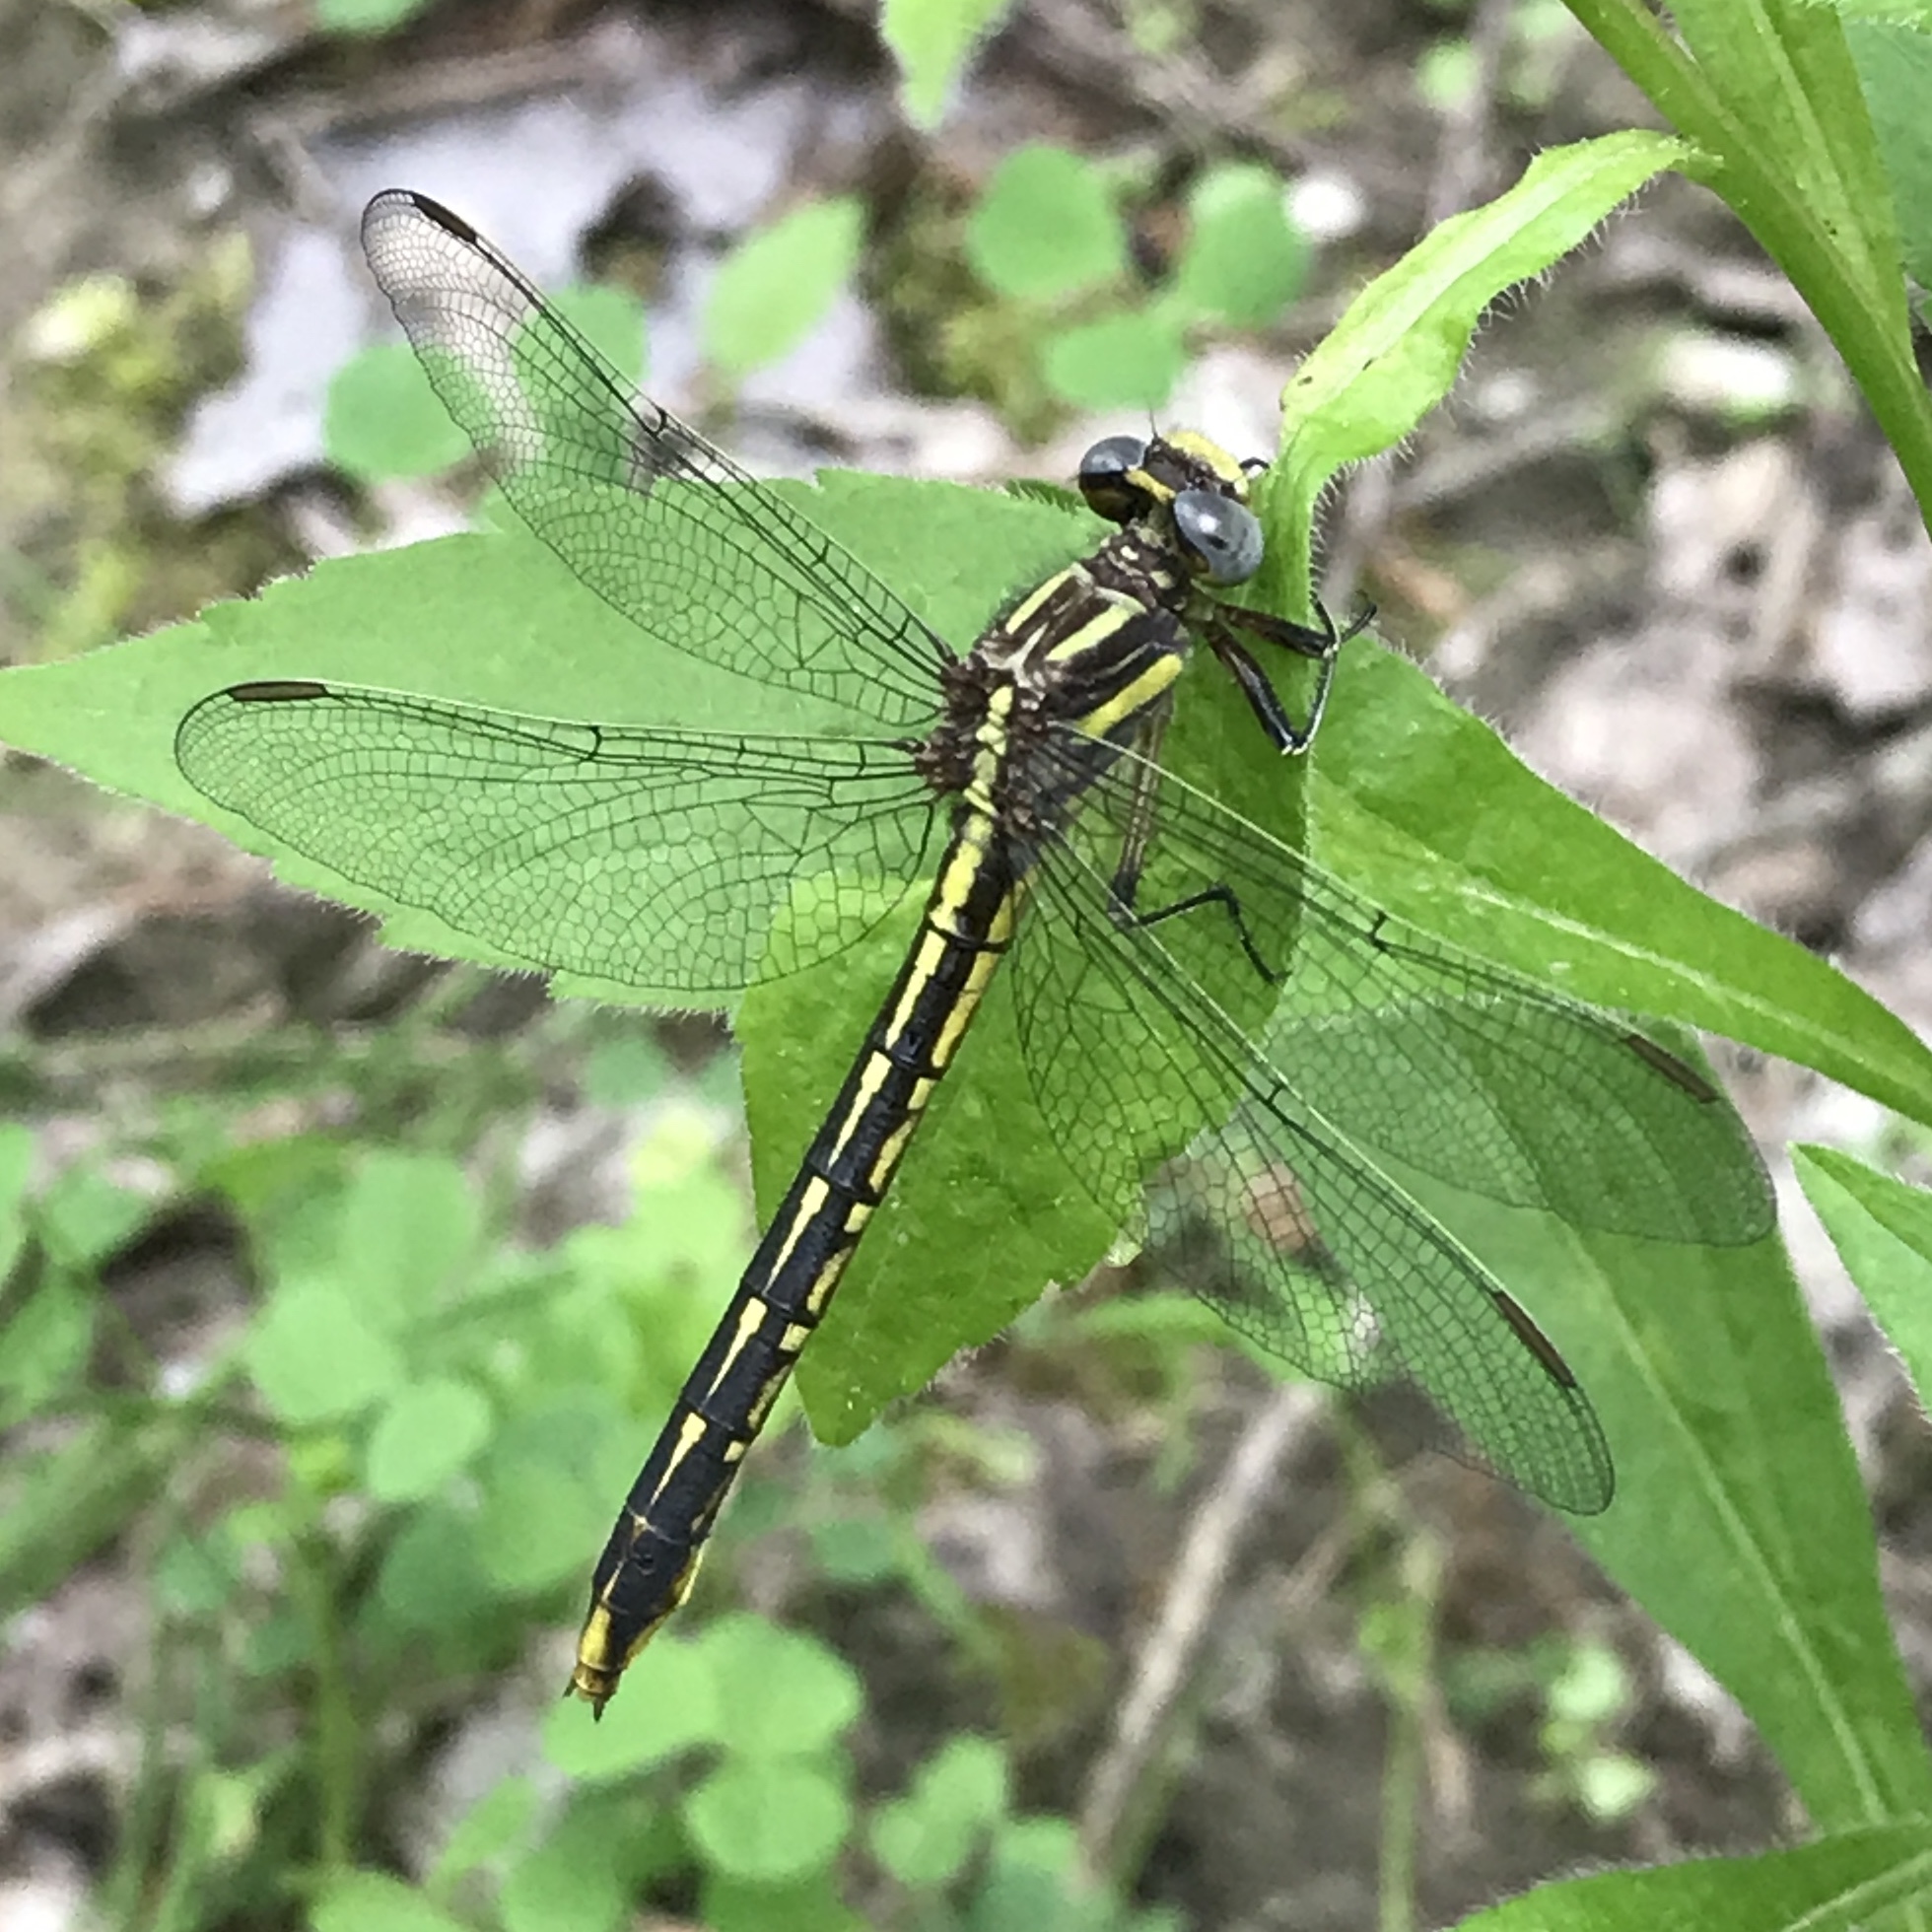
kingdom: Animalia
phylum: Arthropoda
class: Insecta
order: Odonata
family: Gomphidae
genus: Phanogomphus
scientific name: Phanogomphus exilis
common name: Lancet clubtail
